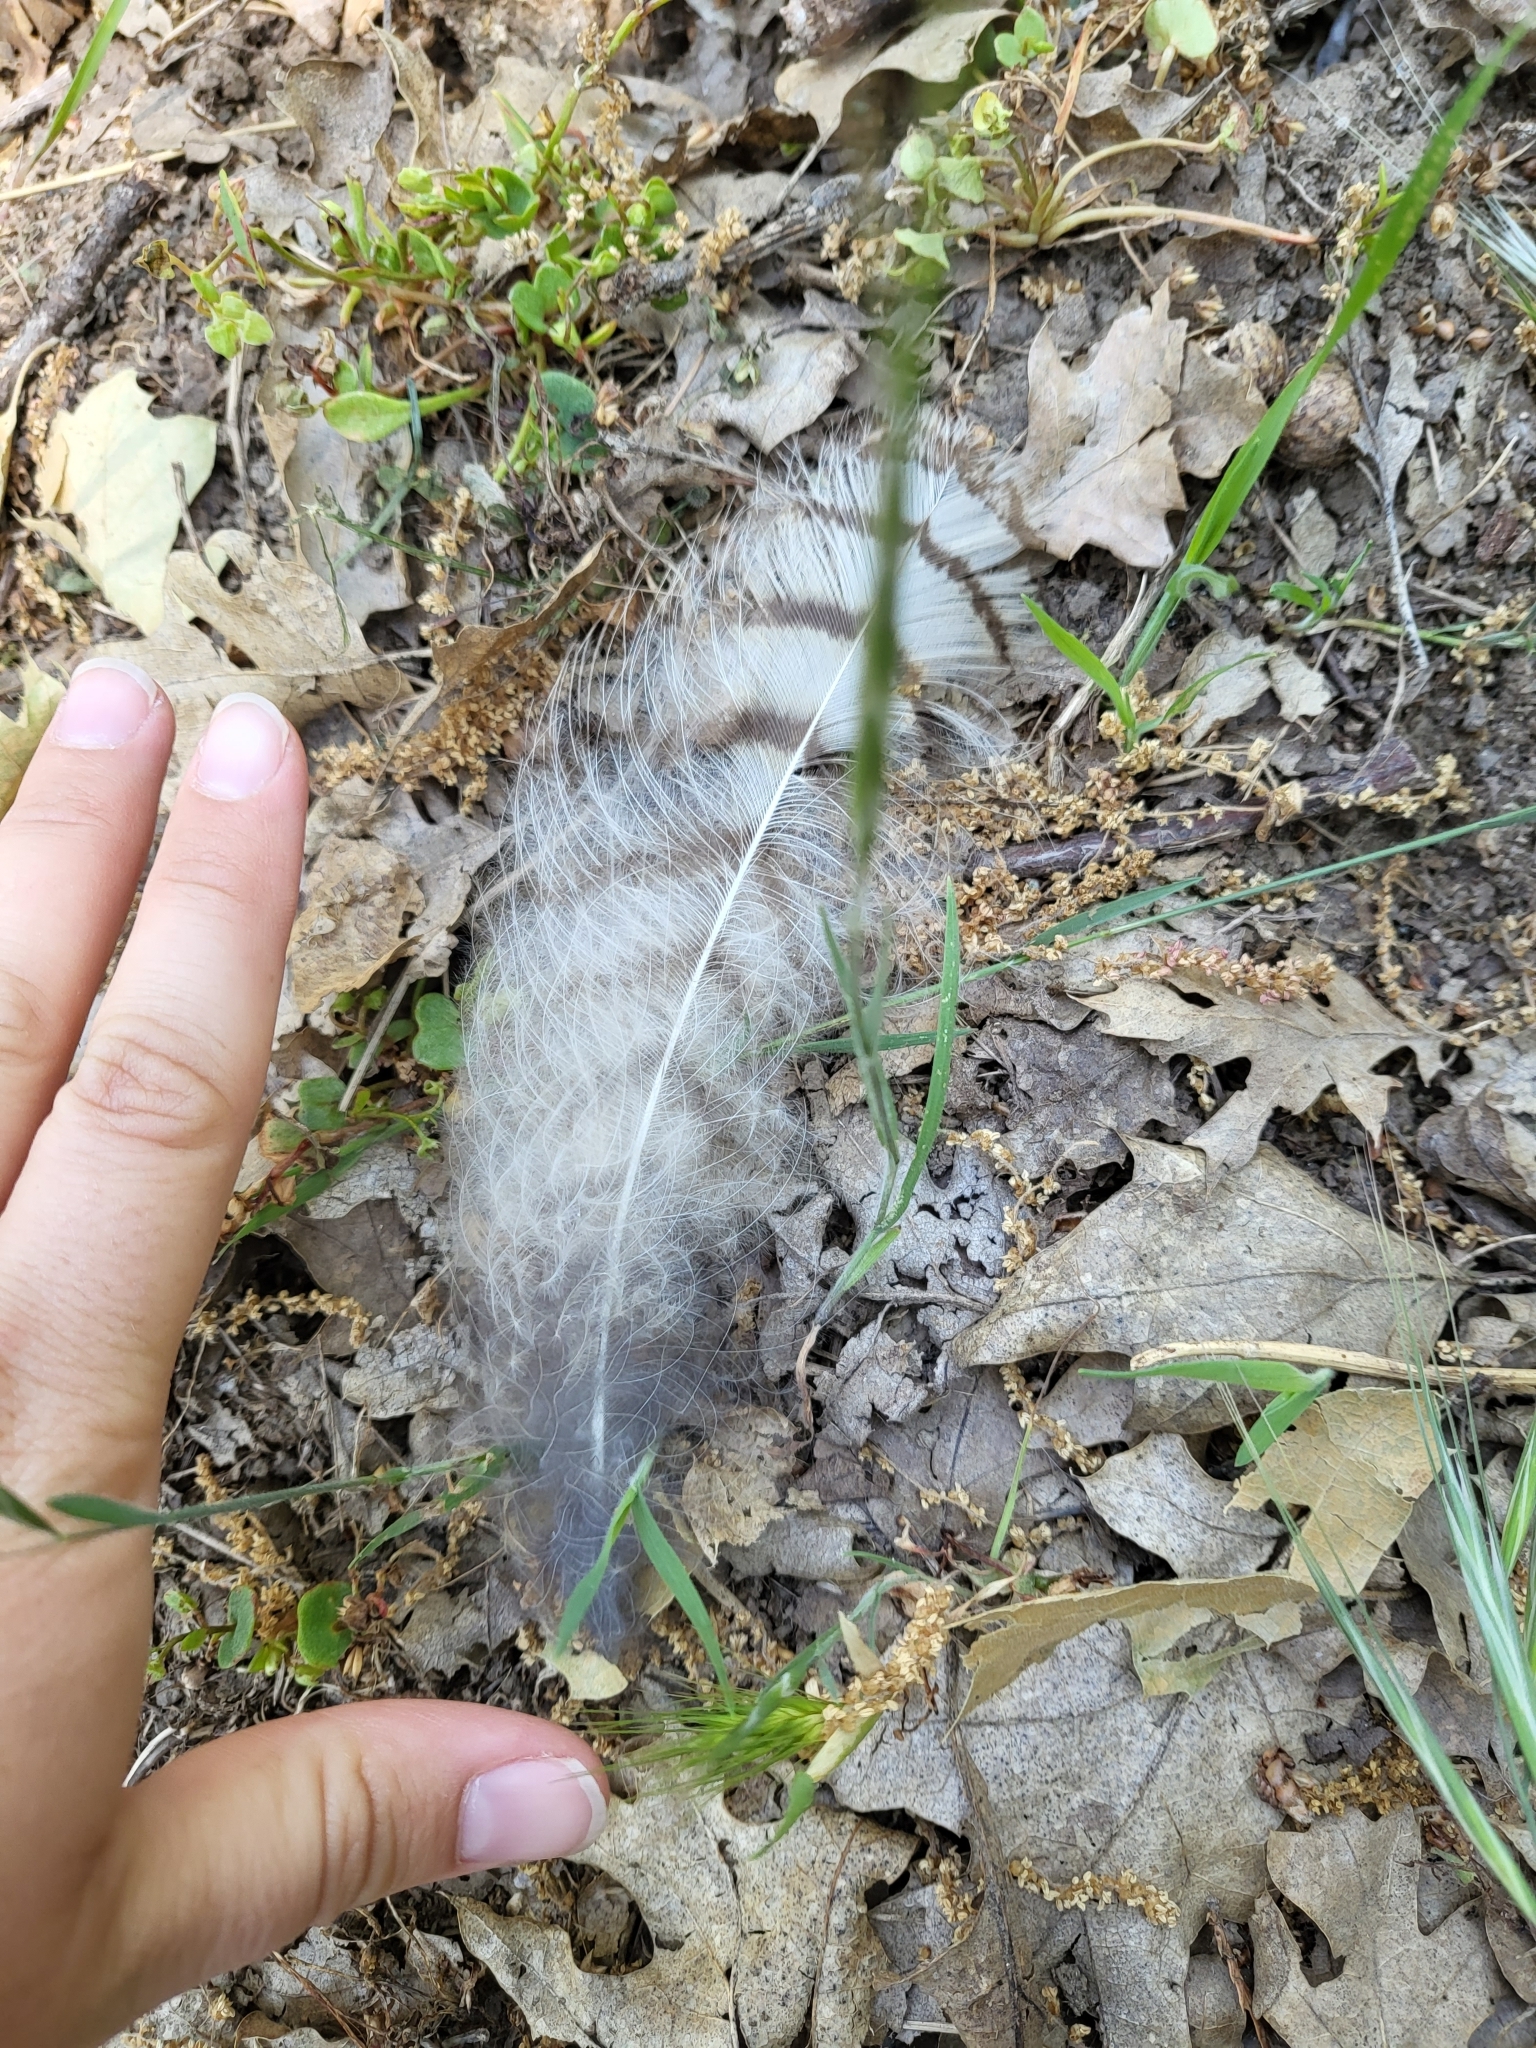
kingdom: Animalia
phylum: Chordata
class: Aves
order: Strigiformes
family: Strigidae
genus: Bubo
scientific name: Bubo virginianus
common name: Great horned owl
